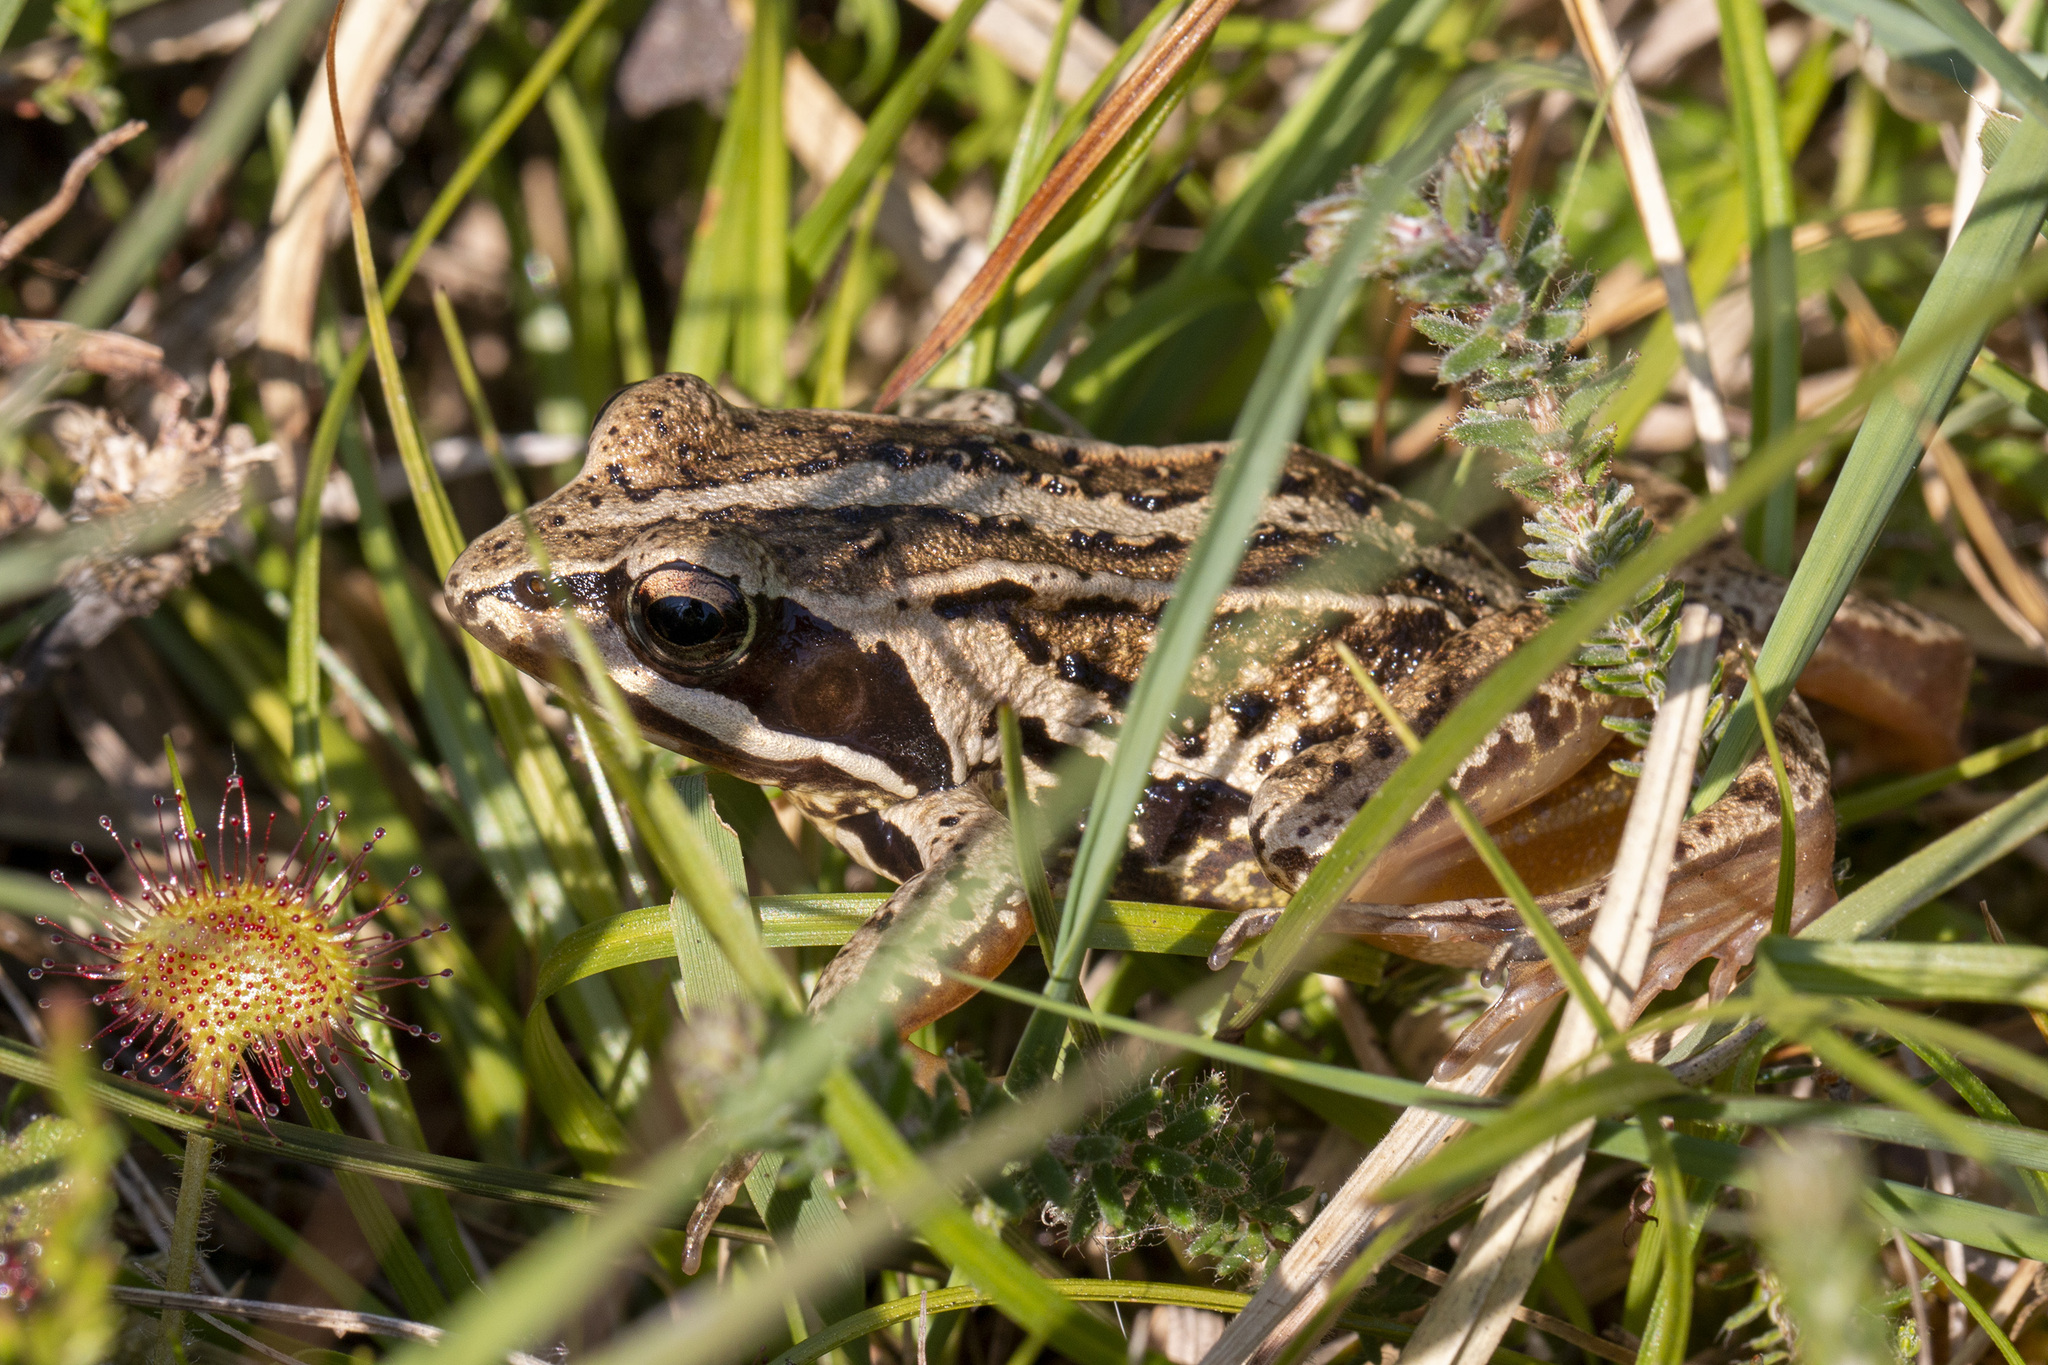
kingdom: Animalia
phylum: Chordata
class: Amphibia
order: Anura
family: Ranidae
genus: Rana
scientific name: Rana arvalis
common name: Moor frog
